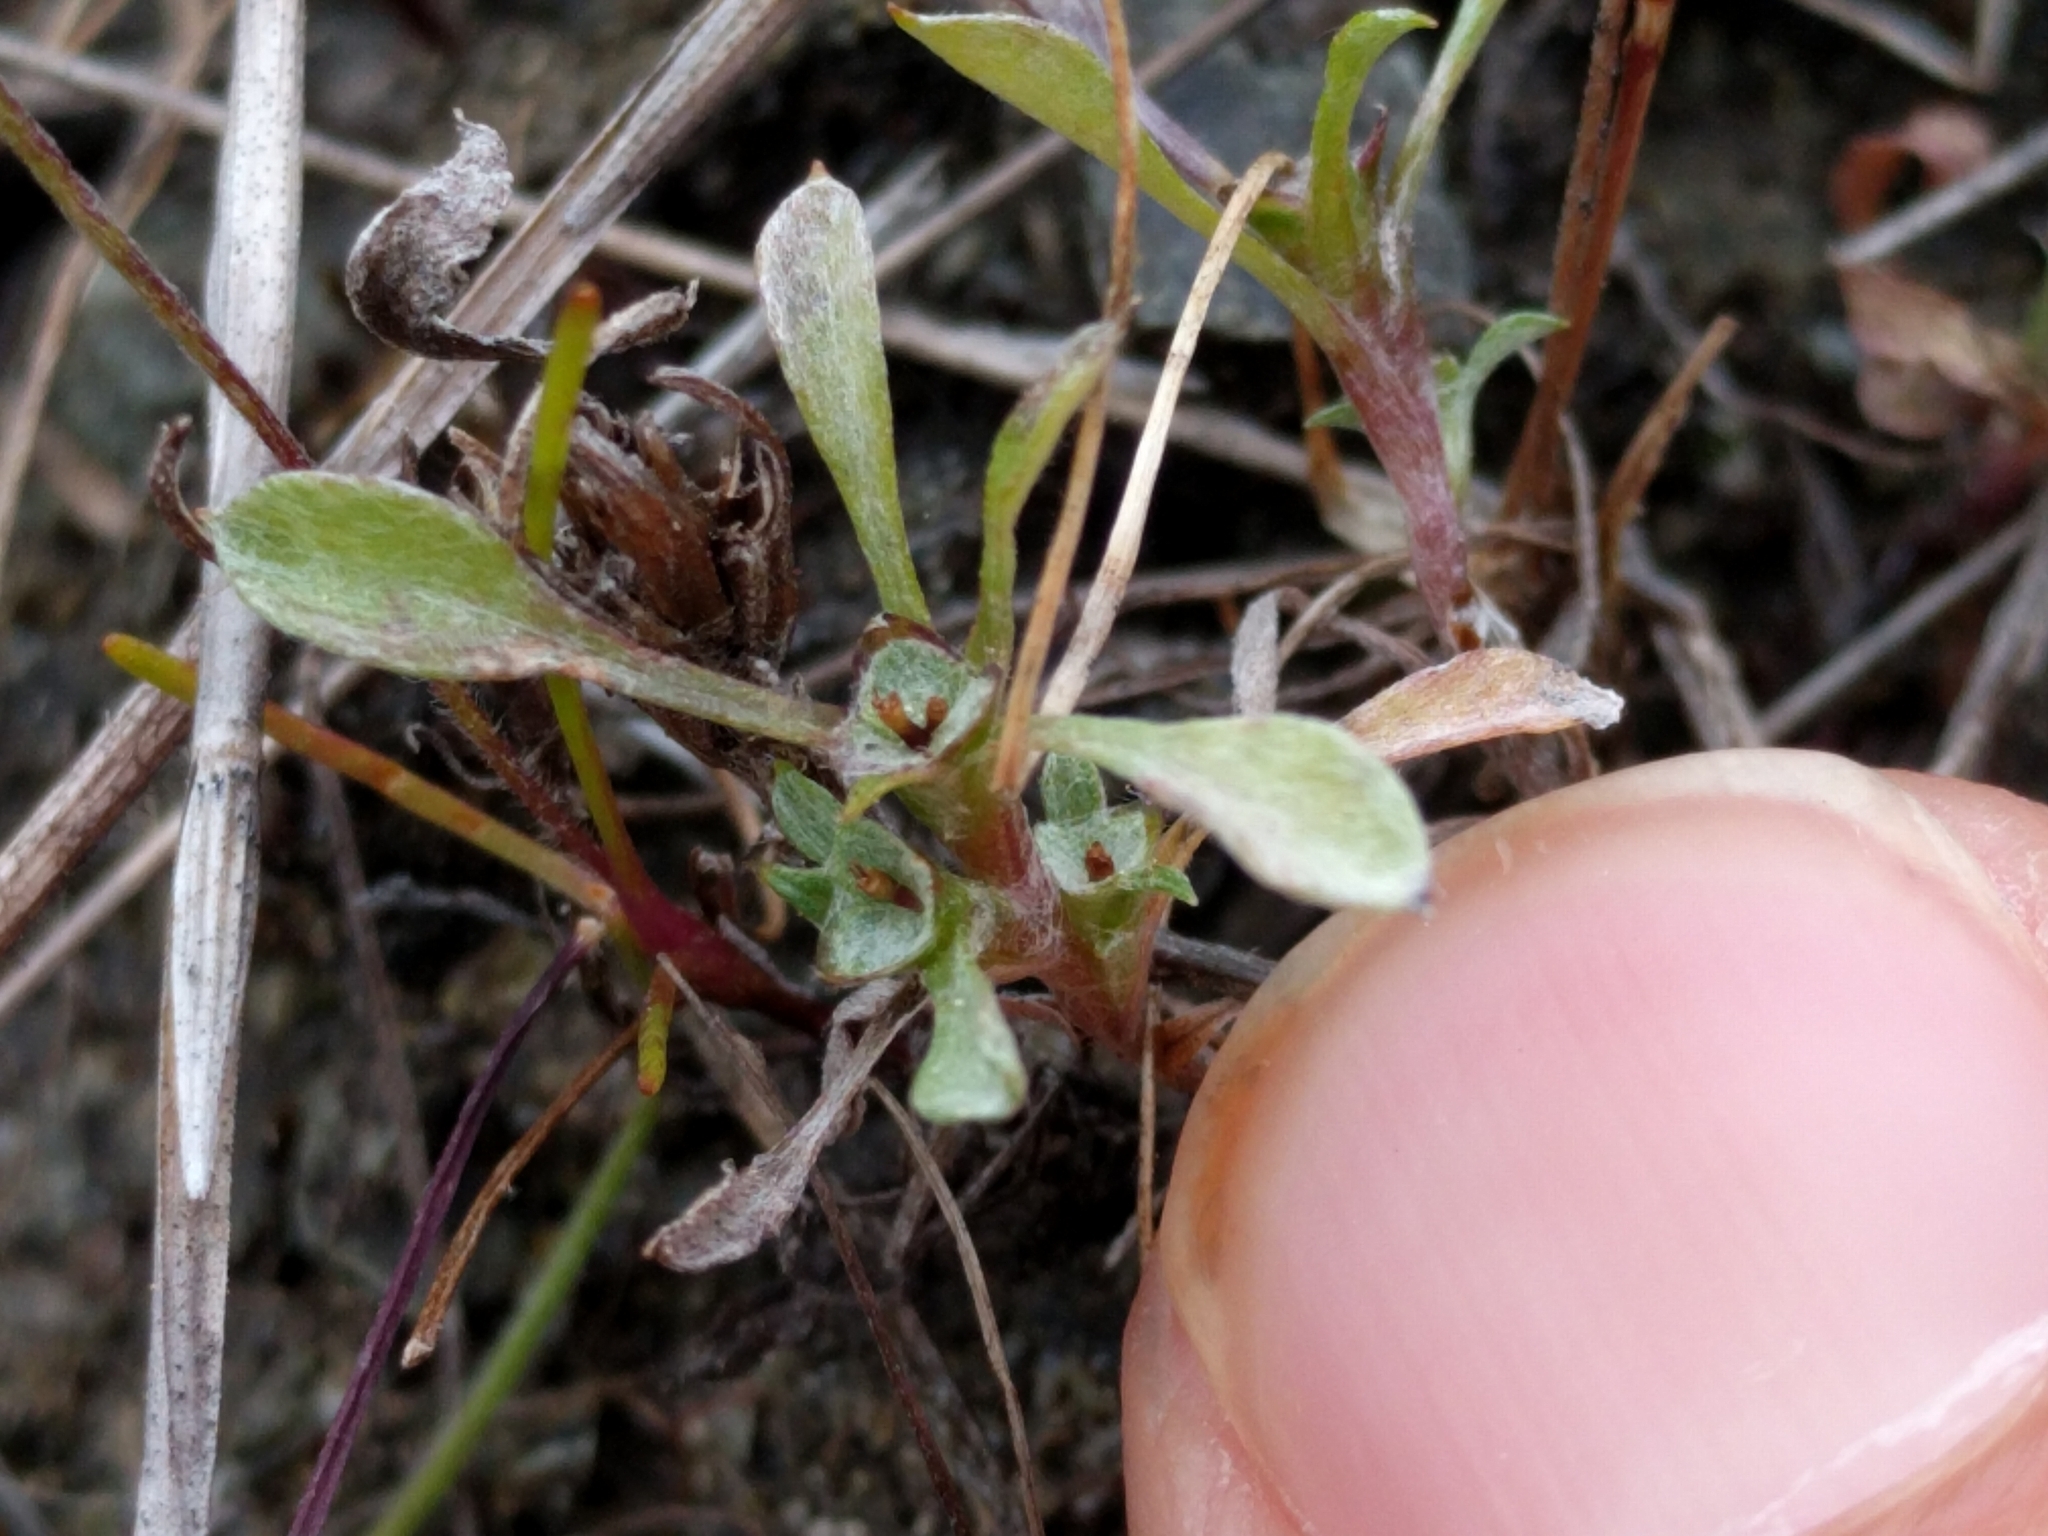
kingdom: Plantae
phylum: Tracheophyta
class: Magnoliopsida
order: Asterales
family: Asteraceae
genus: Hesperevax
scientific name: Hesperevax sparsiflora
